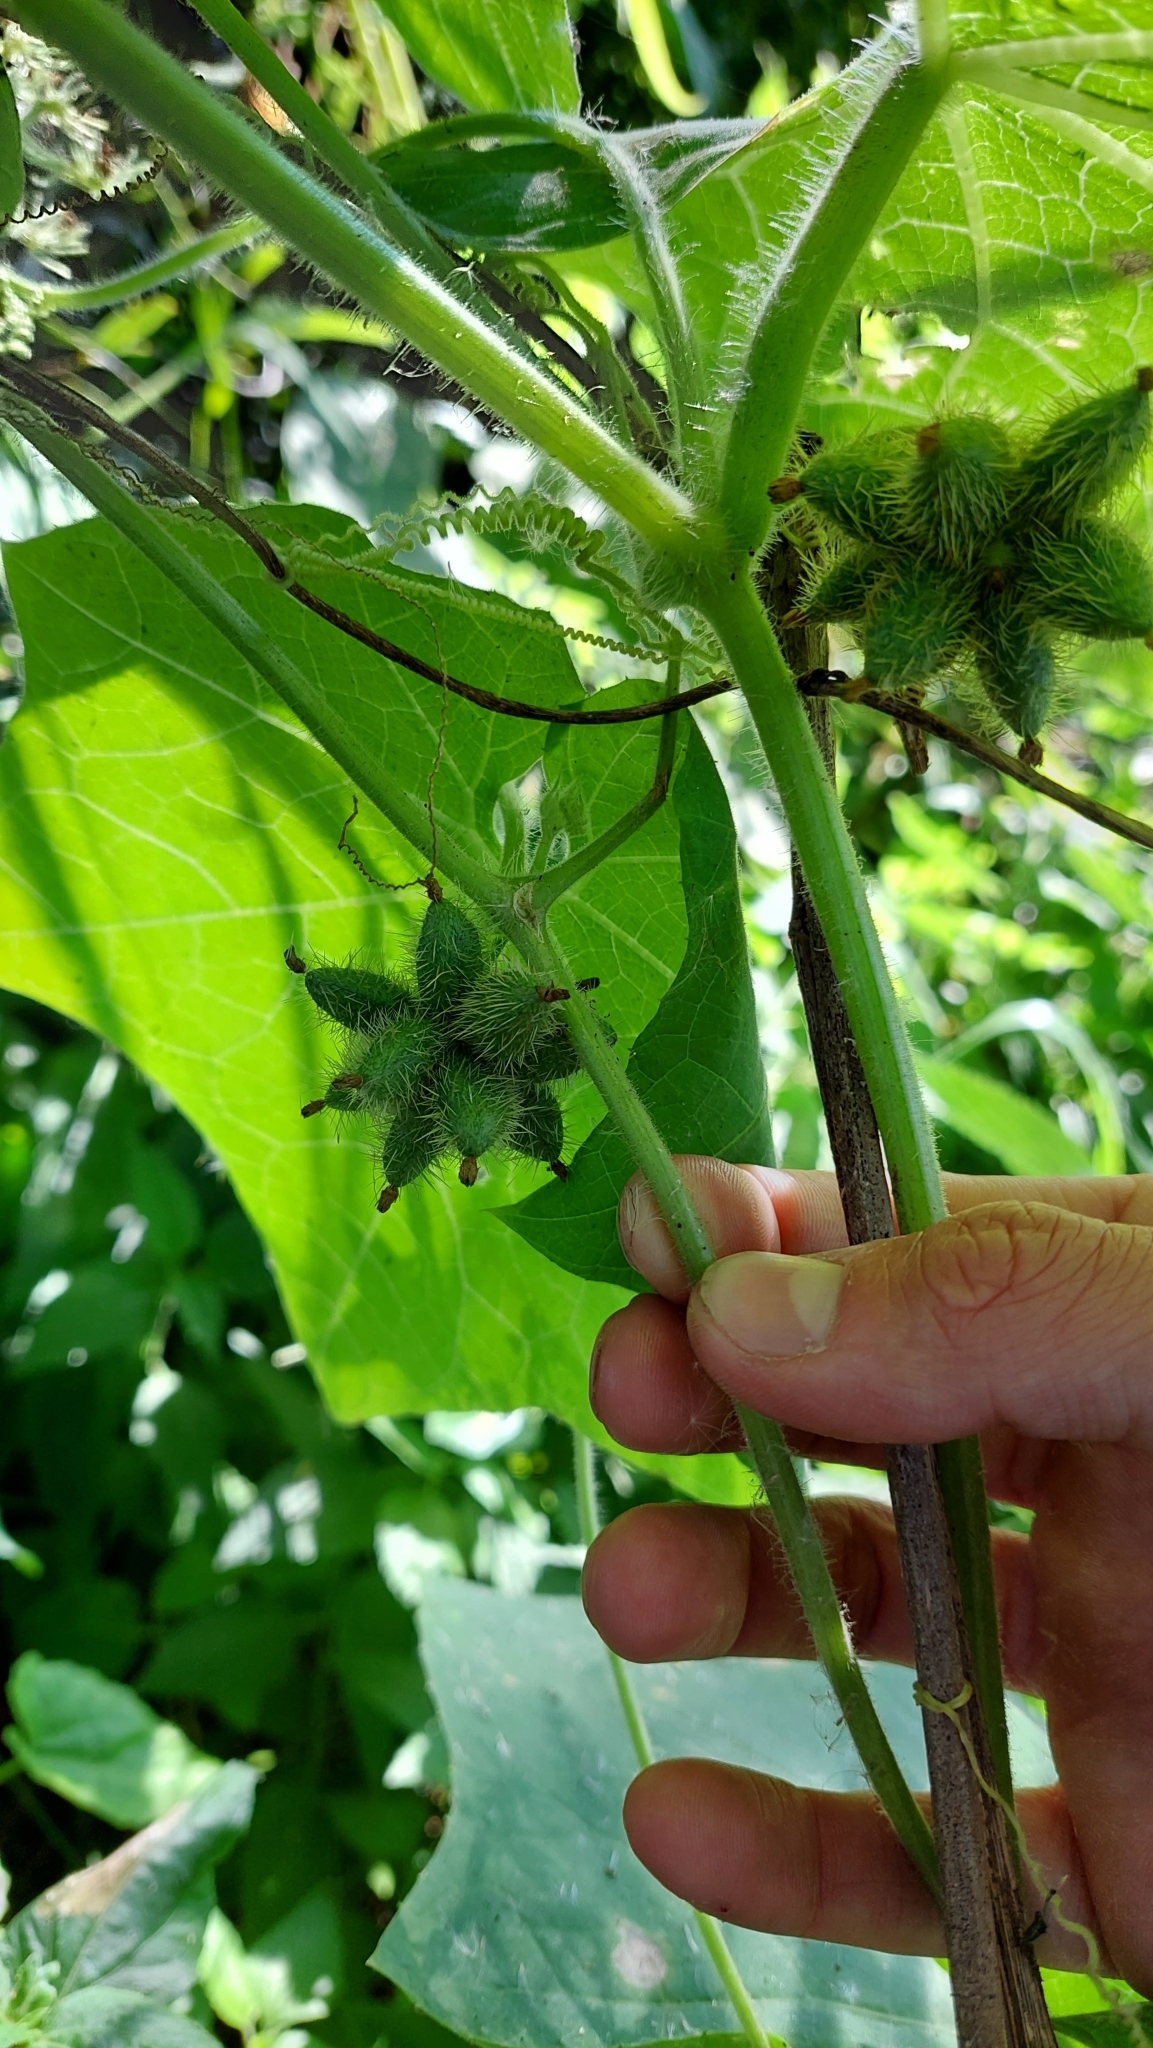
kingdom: Plantae
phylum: Tracheophyta
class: Magnoliopsida
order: Cucurbitales
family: Cucurbitaceae
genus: Sicyos
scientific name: Sicyos polyacanthos
